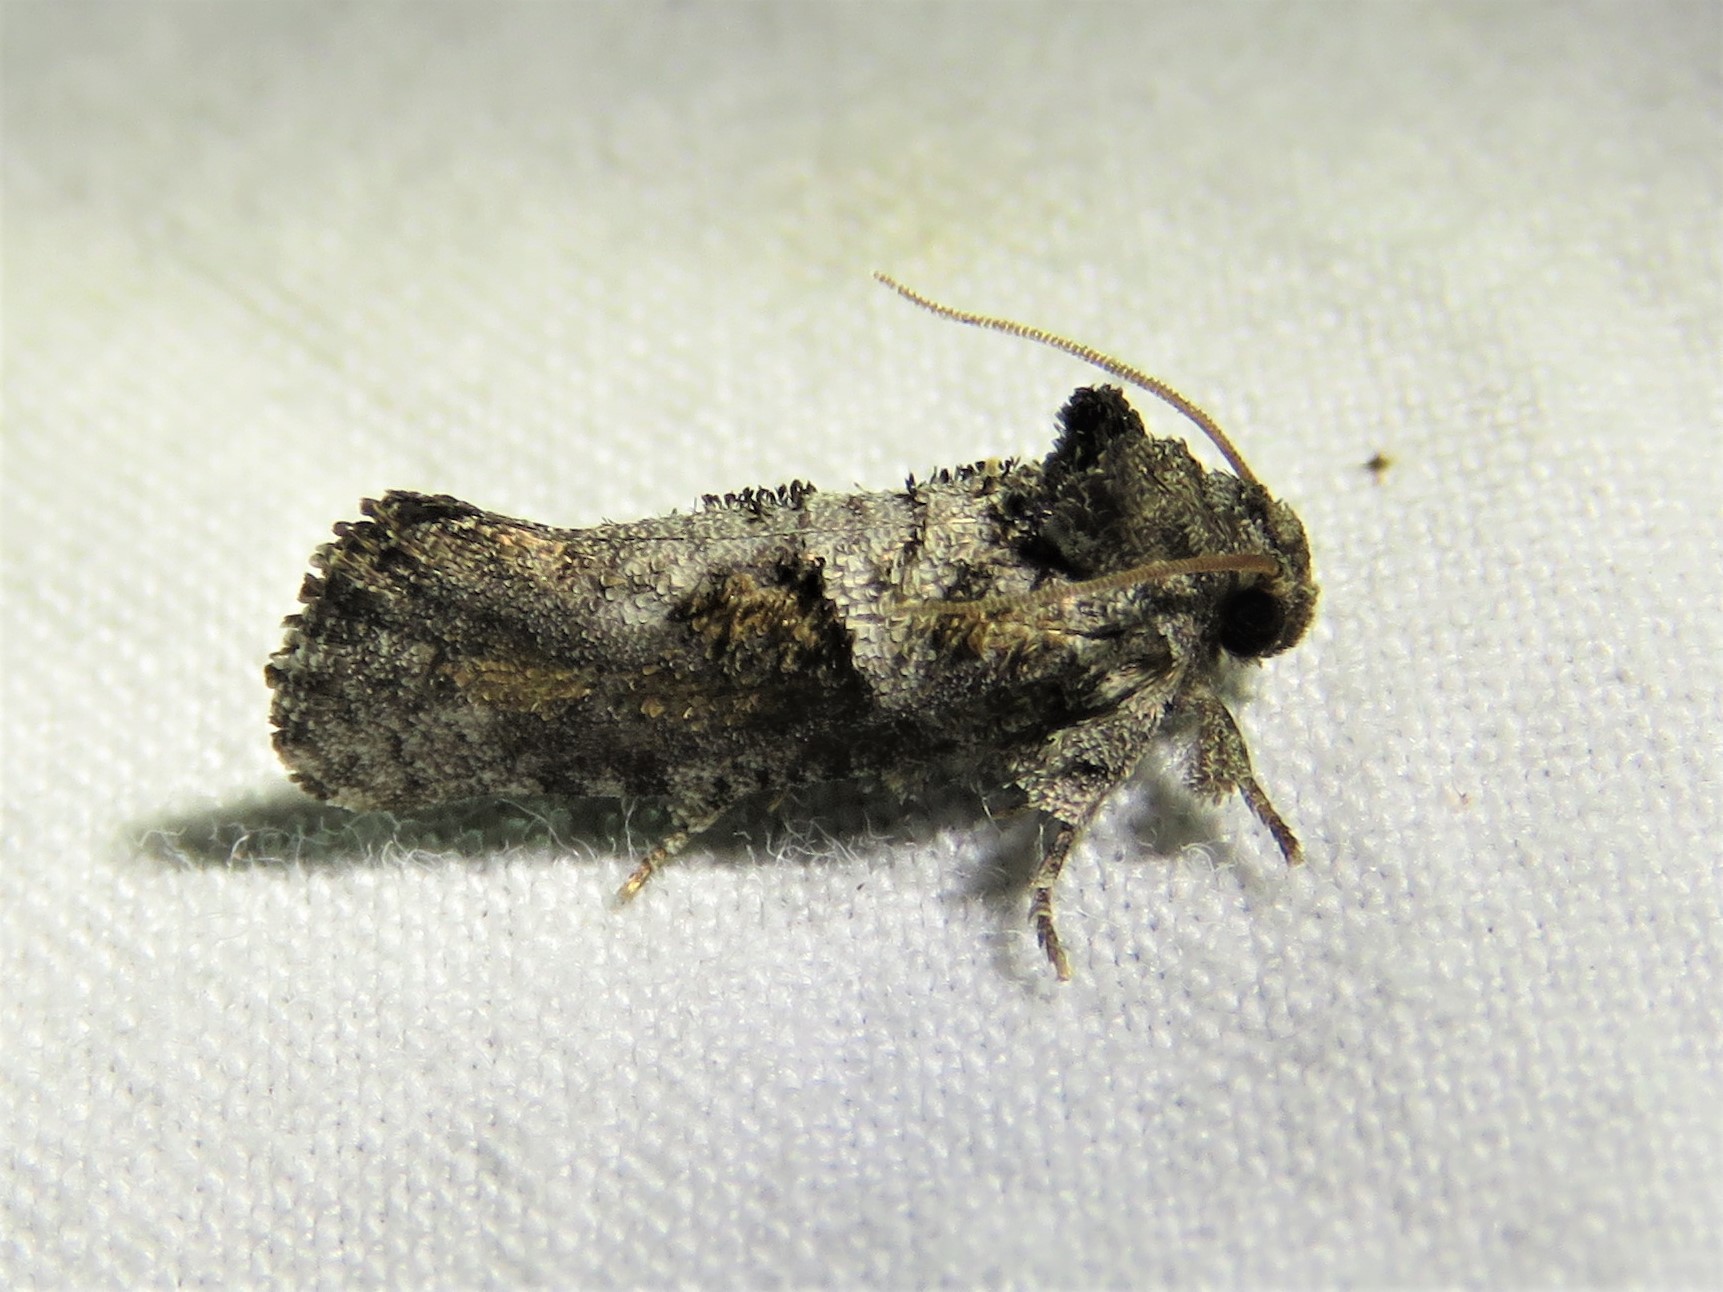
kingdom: Animalia
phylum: Arthropoda
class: Insecta
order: Lepidoptera
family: Tineidae
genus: Acrolophus
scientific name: Acrolophus piger
